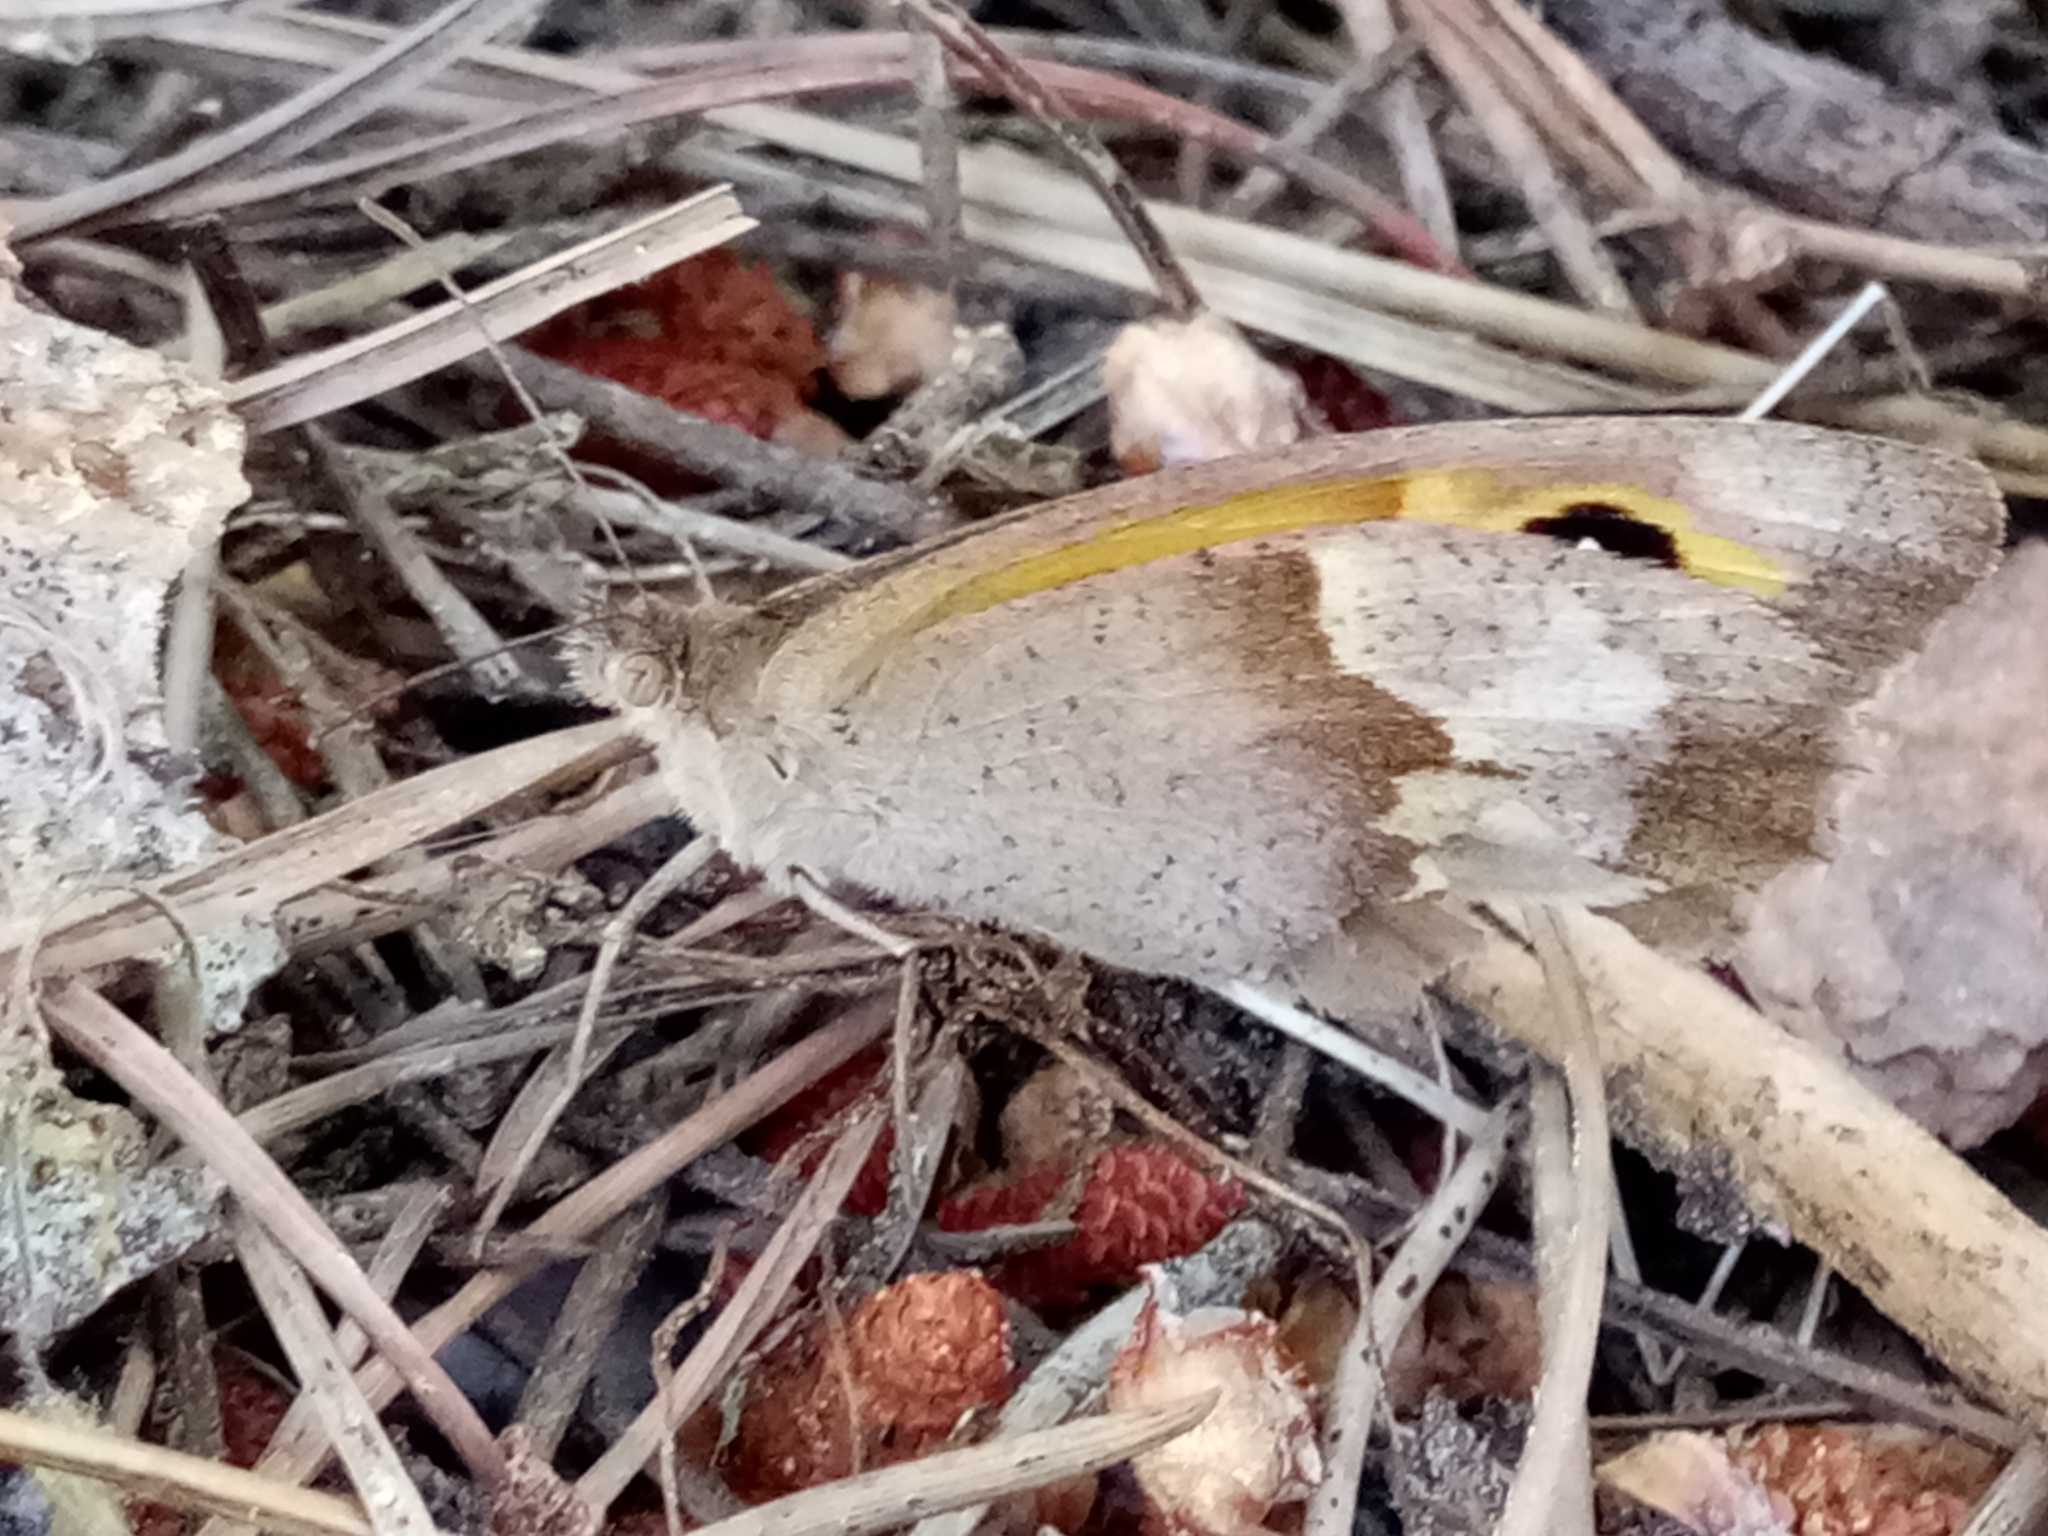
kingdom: Animalia
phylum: Arthropoda
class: Insecta
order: Lepidoptera
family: Nymphalidae
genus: Maniola
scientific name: Maniola jurtina
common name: Meadow brown
